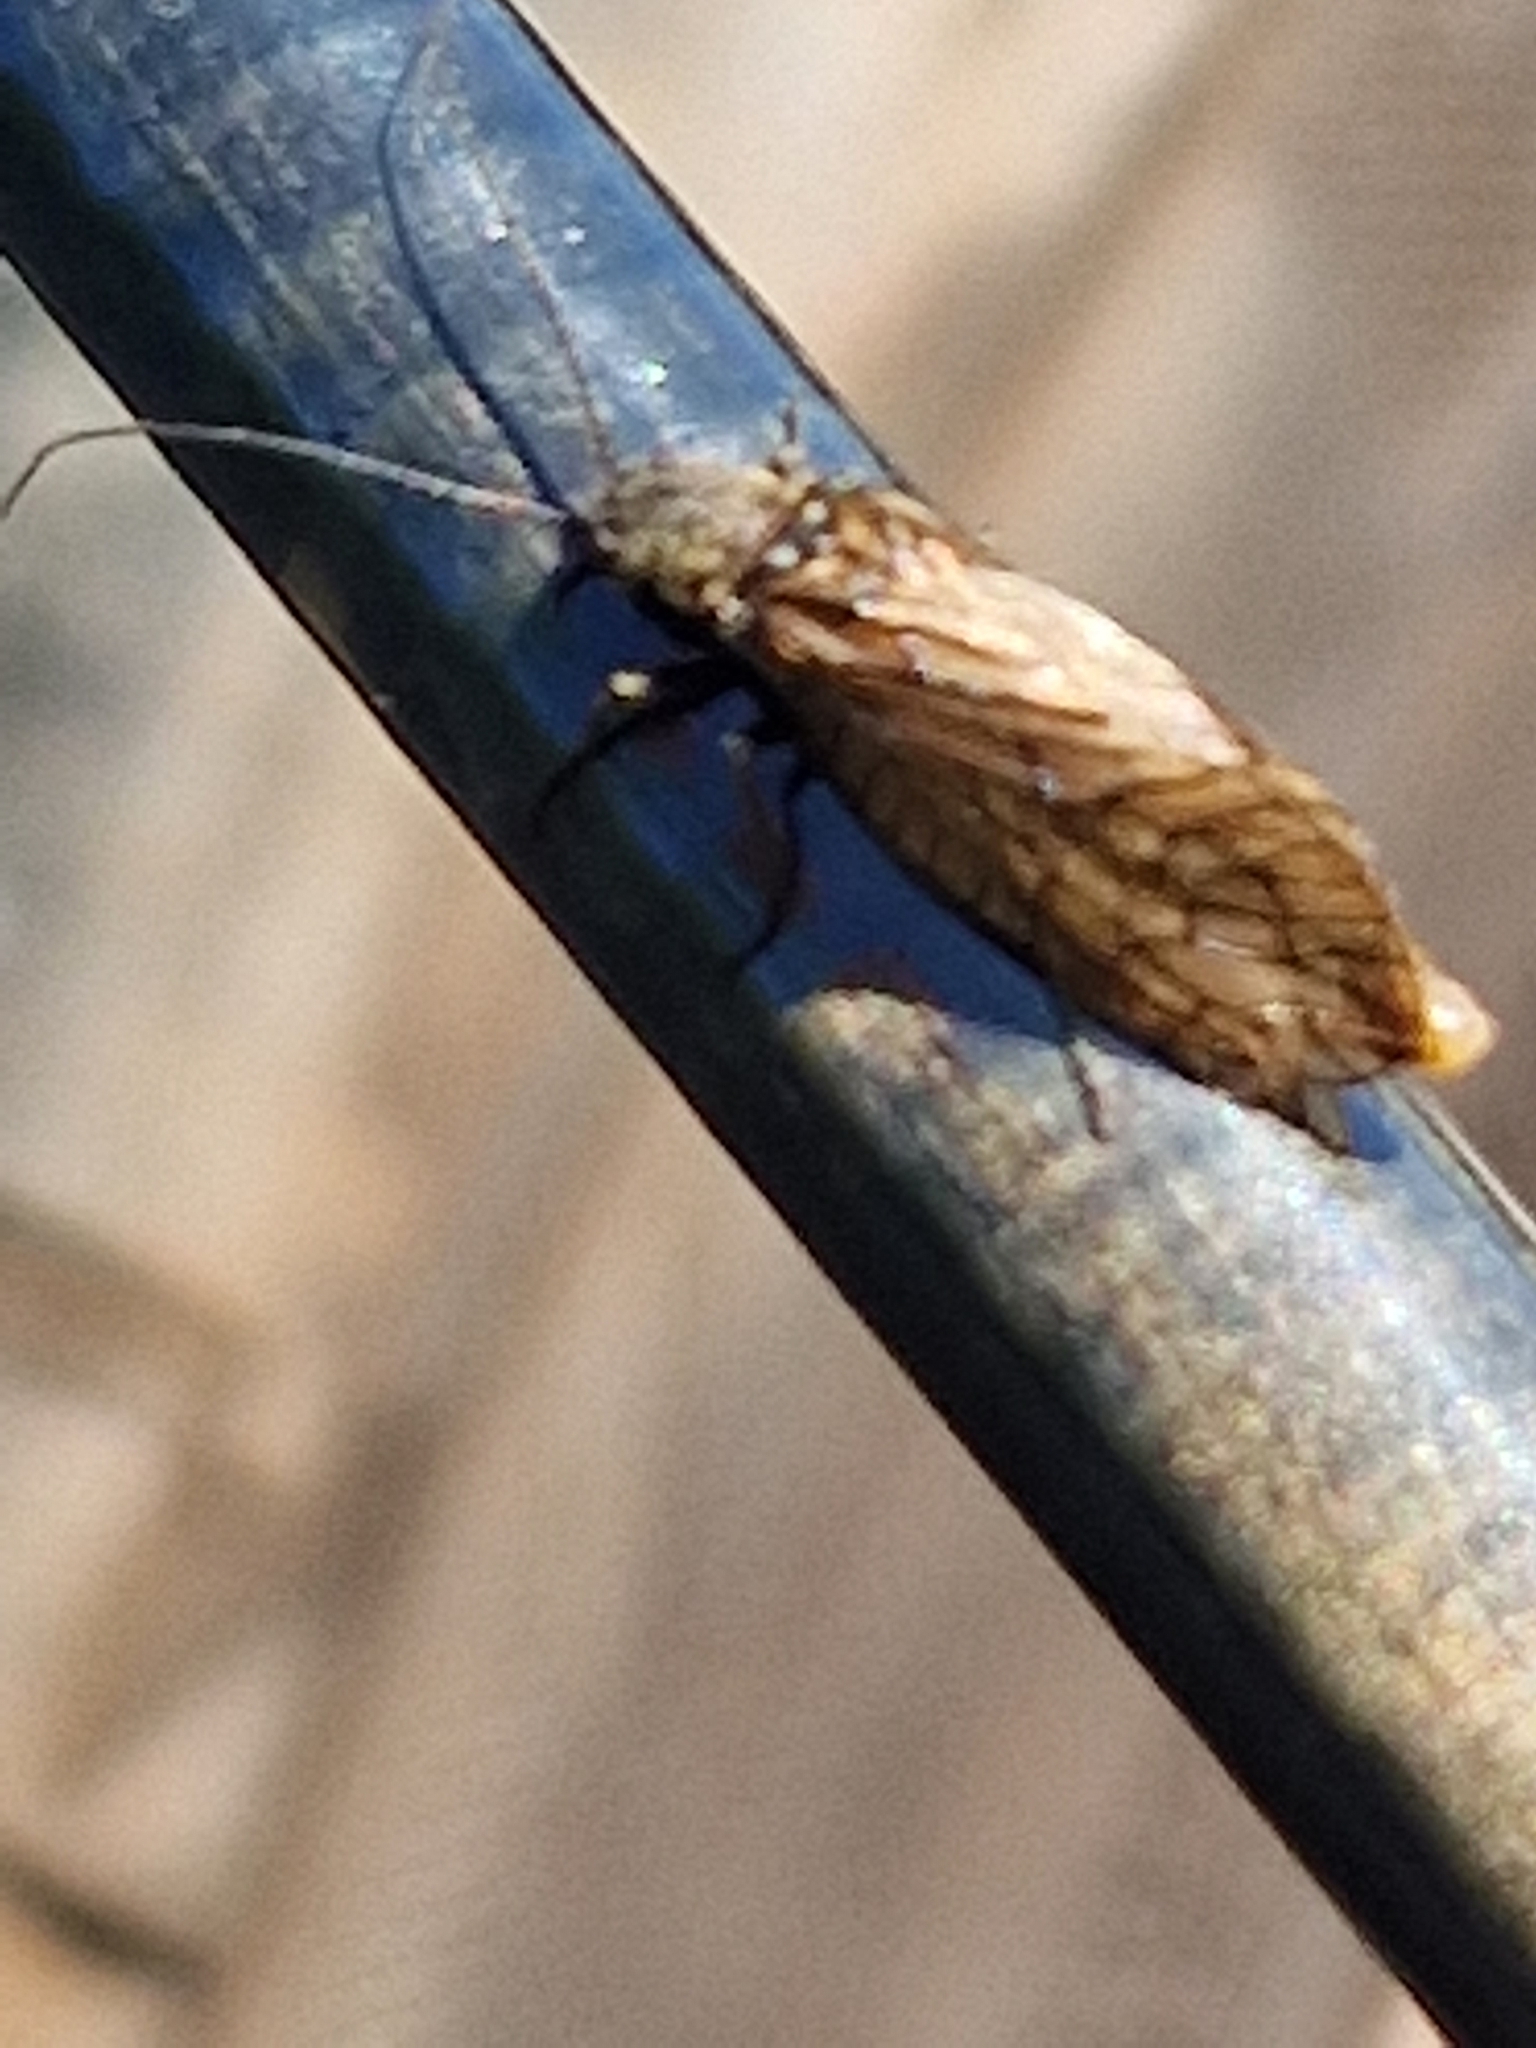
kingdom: Animalia
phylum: Arthropoda
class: Insecta
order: Megaloptera
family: Sialidae
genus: Sialis
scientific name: Sialis
